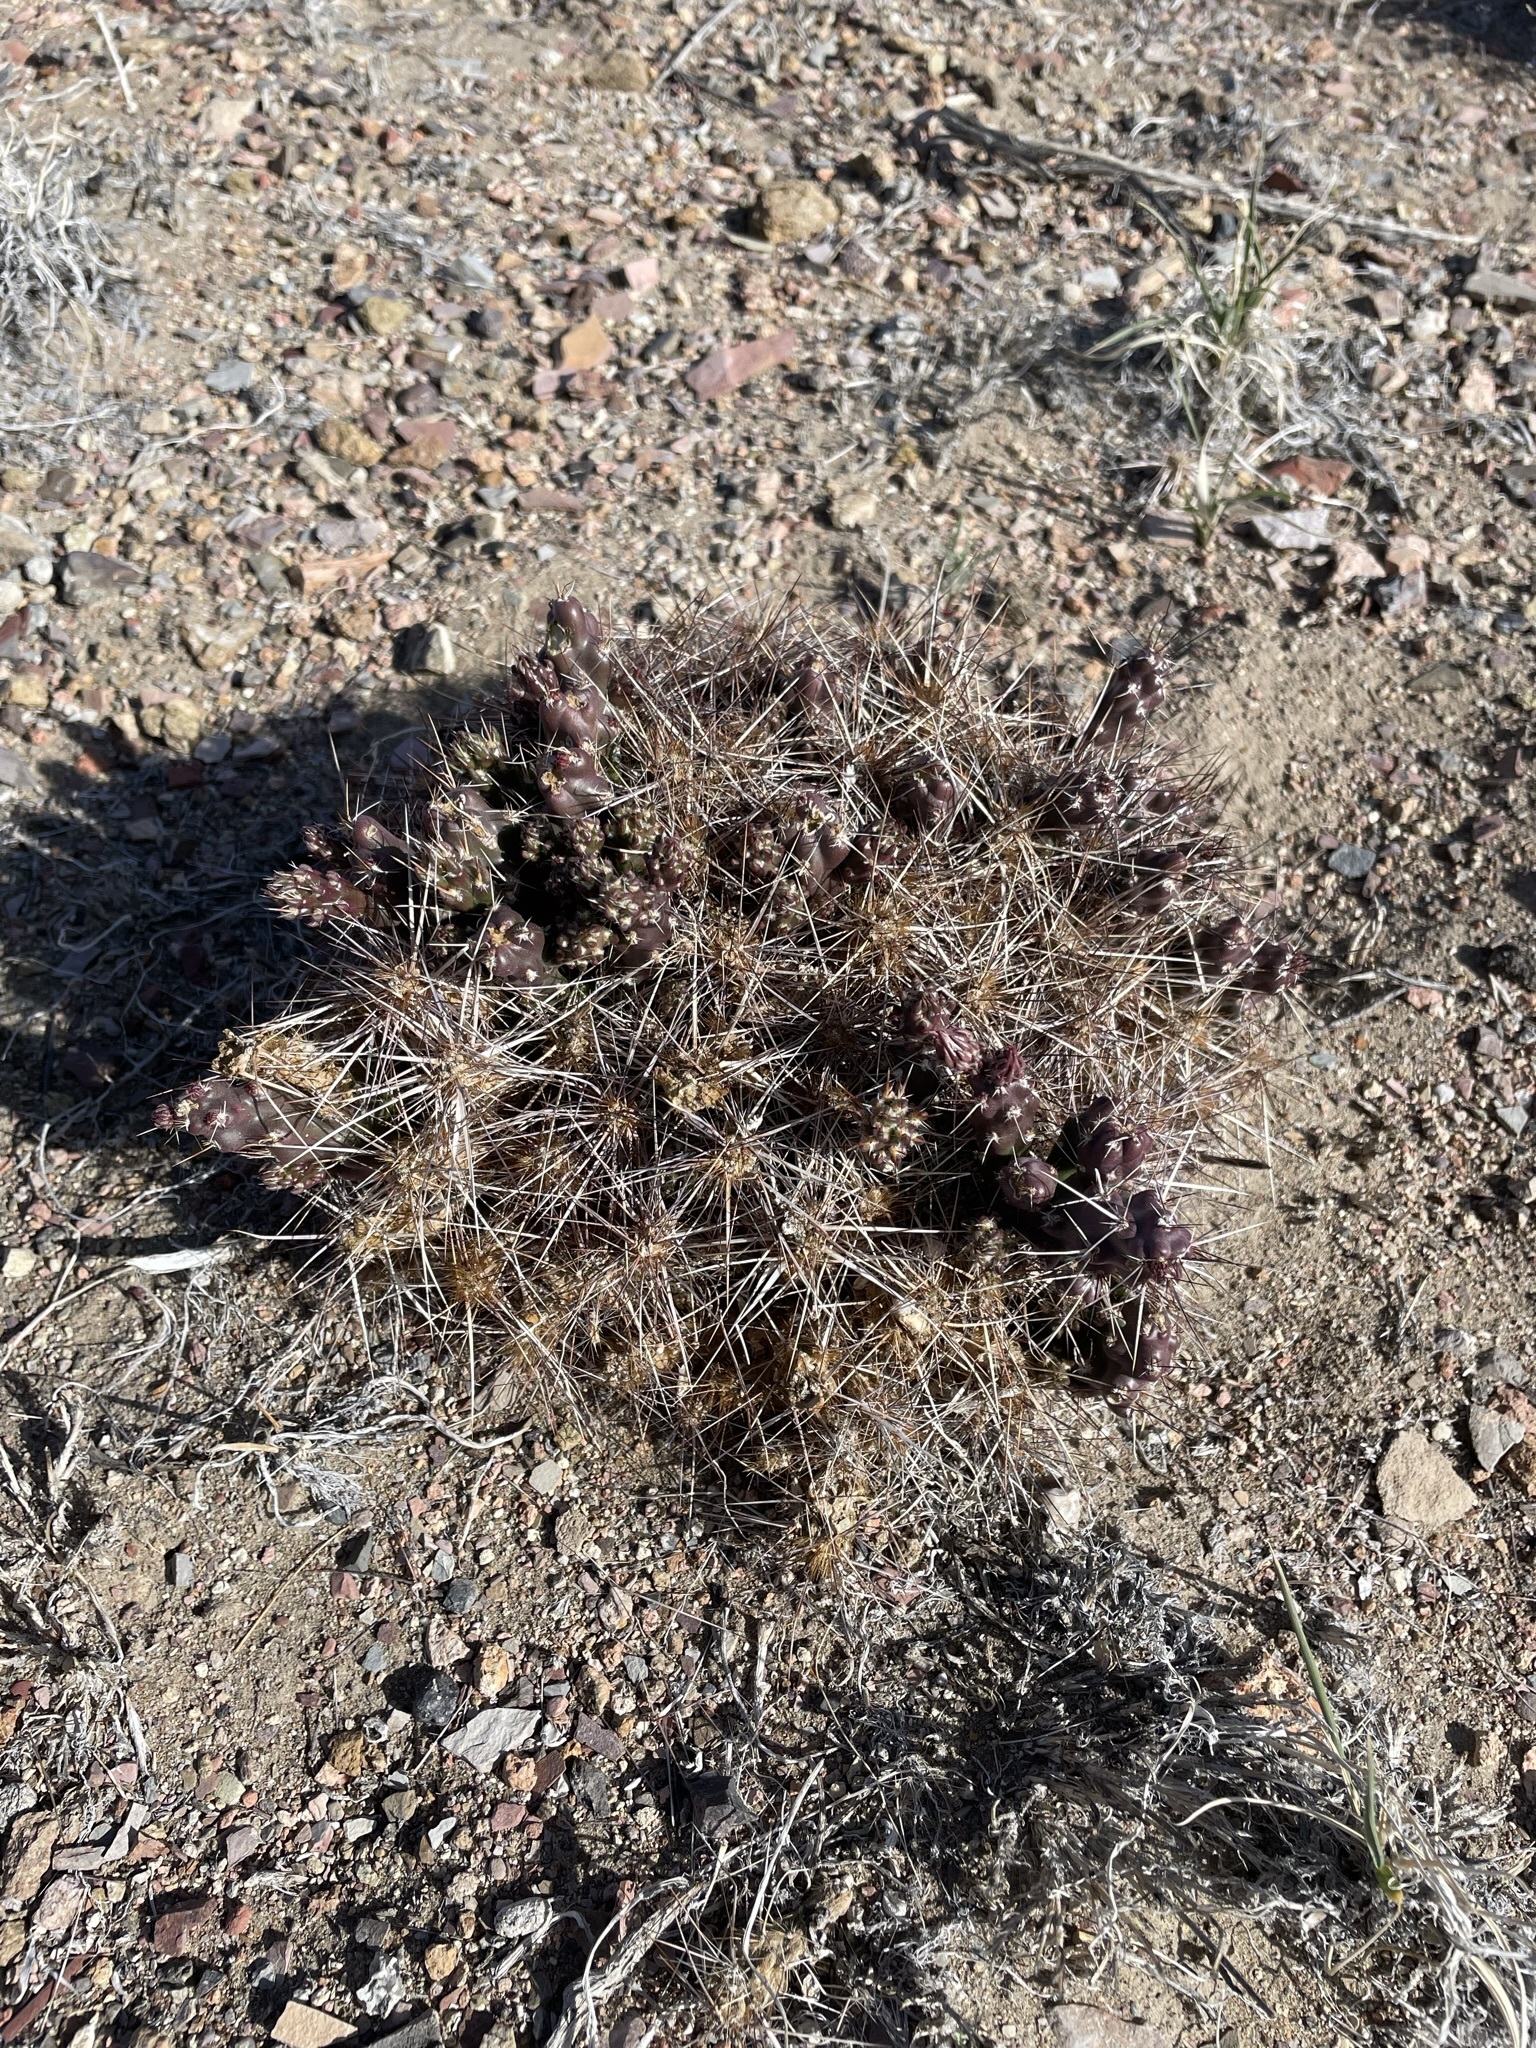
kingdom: Plantae
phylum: Tracheophyta
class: Magnoliopsida
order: Caryophyllales
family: Cactaceae
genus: Micropuntia
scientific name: Micropuntia pulchella
